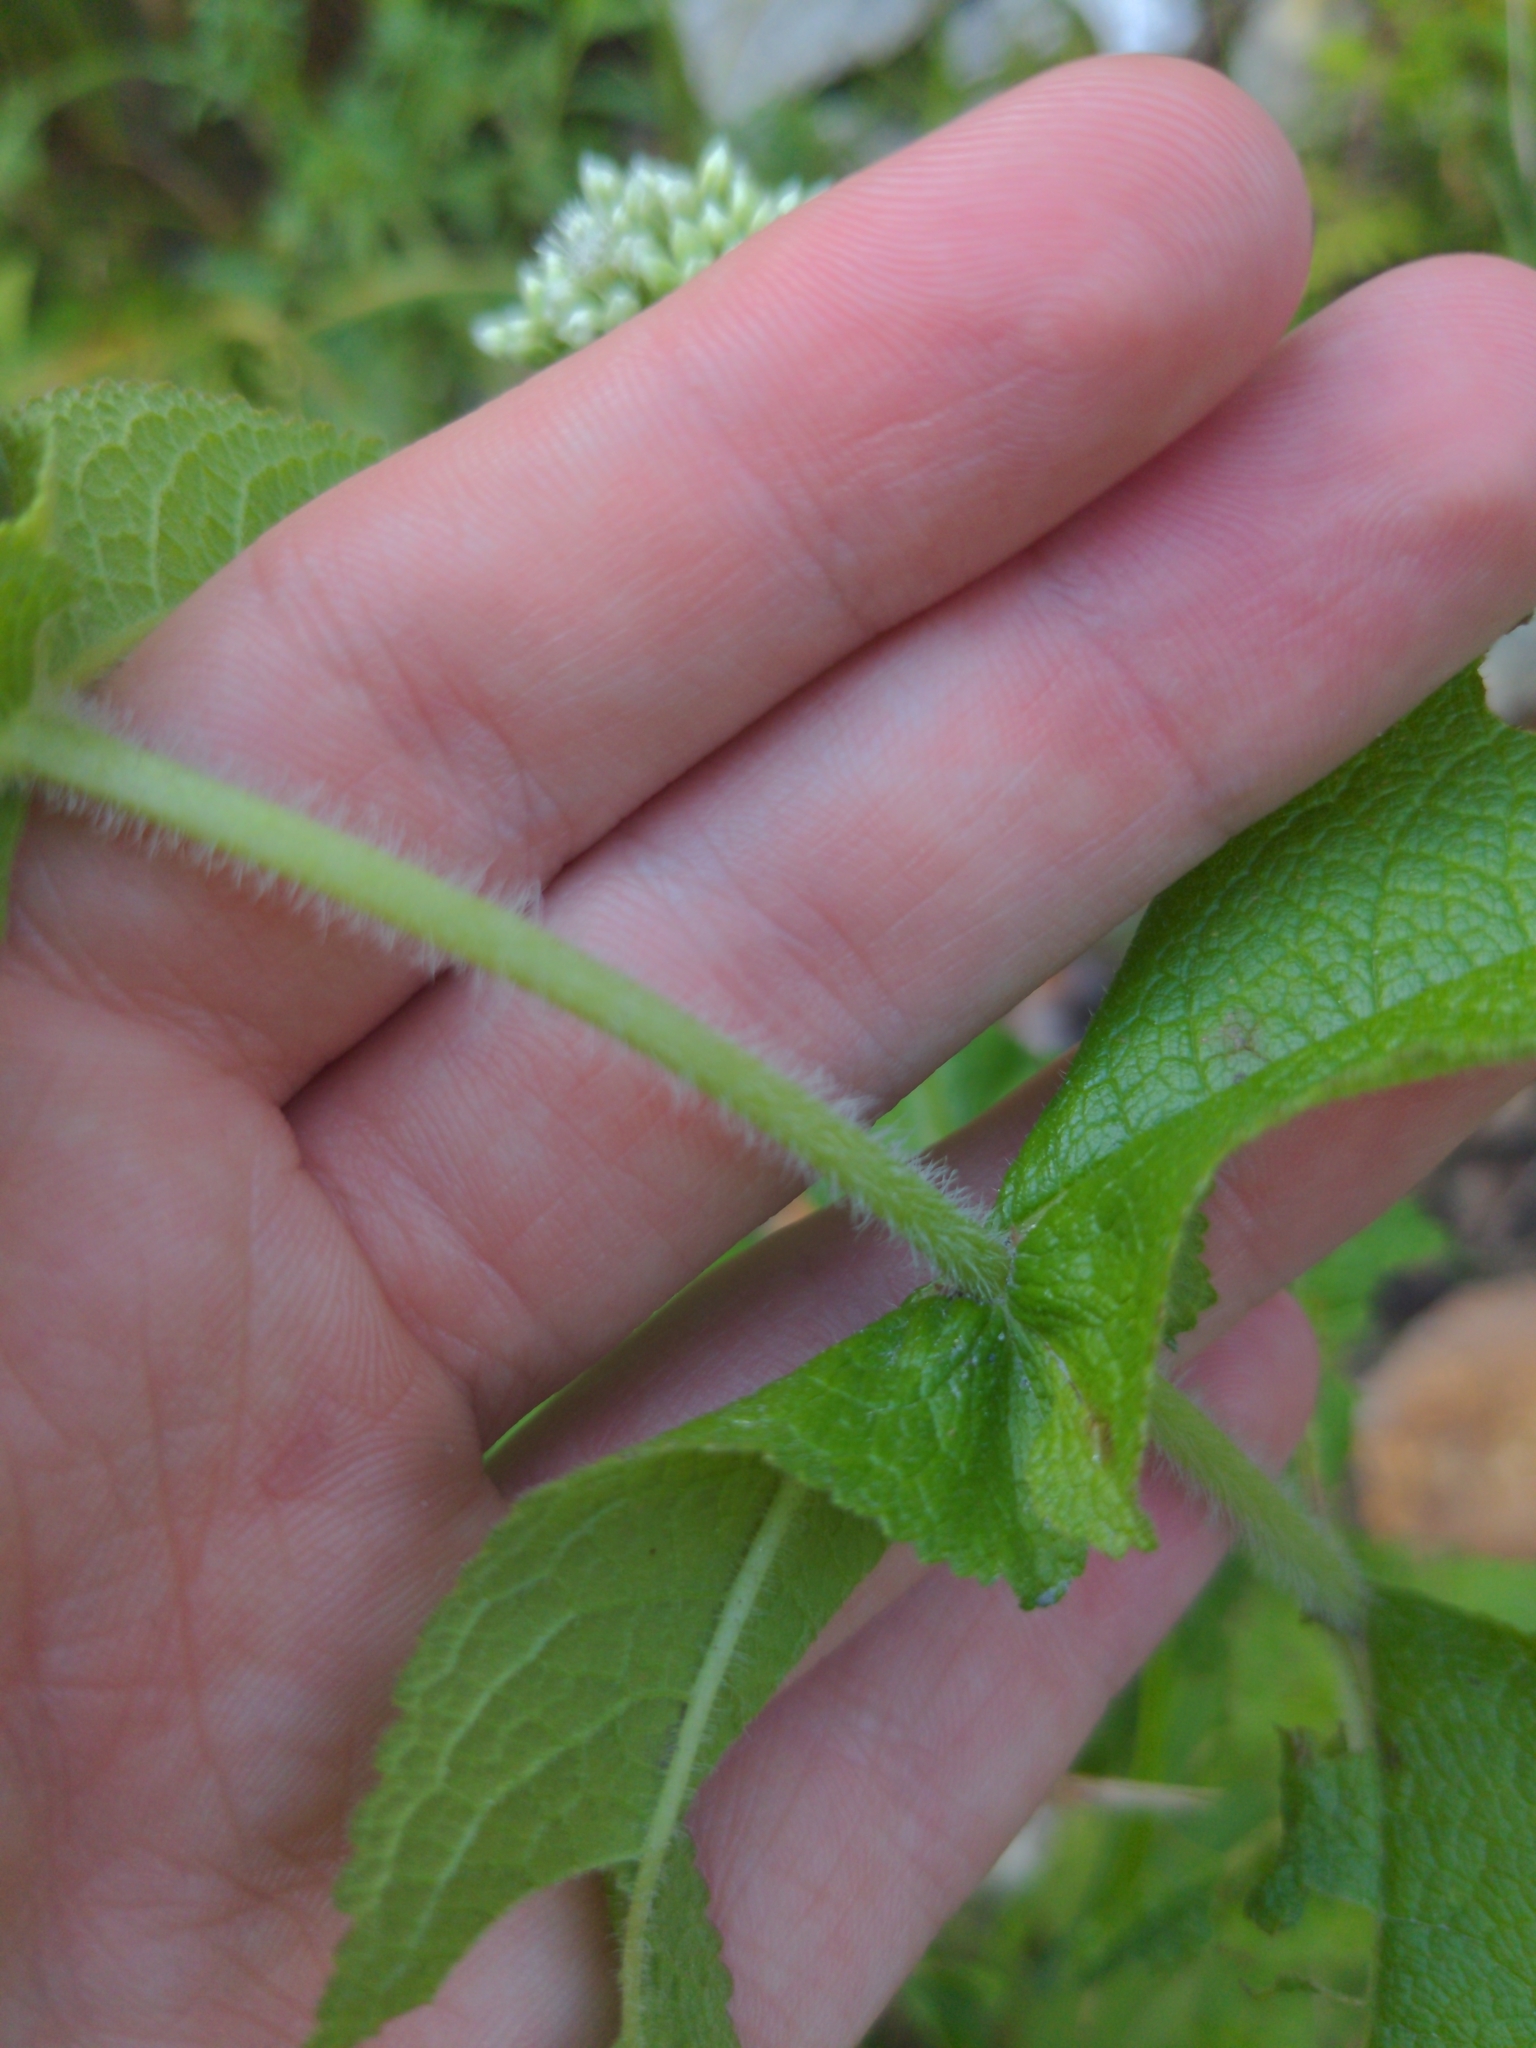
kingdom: Plantae
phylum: Tracheophyta
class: Magnoliopsida
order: Asterales
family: Asteraceae
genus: Eupatorium
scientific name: Eupatorium perfoliatum
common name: Boneset
